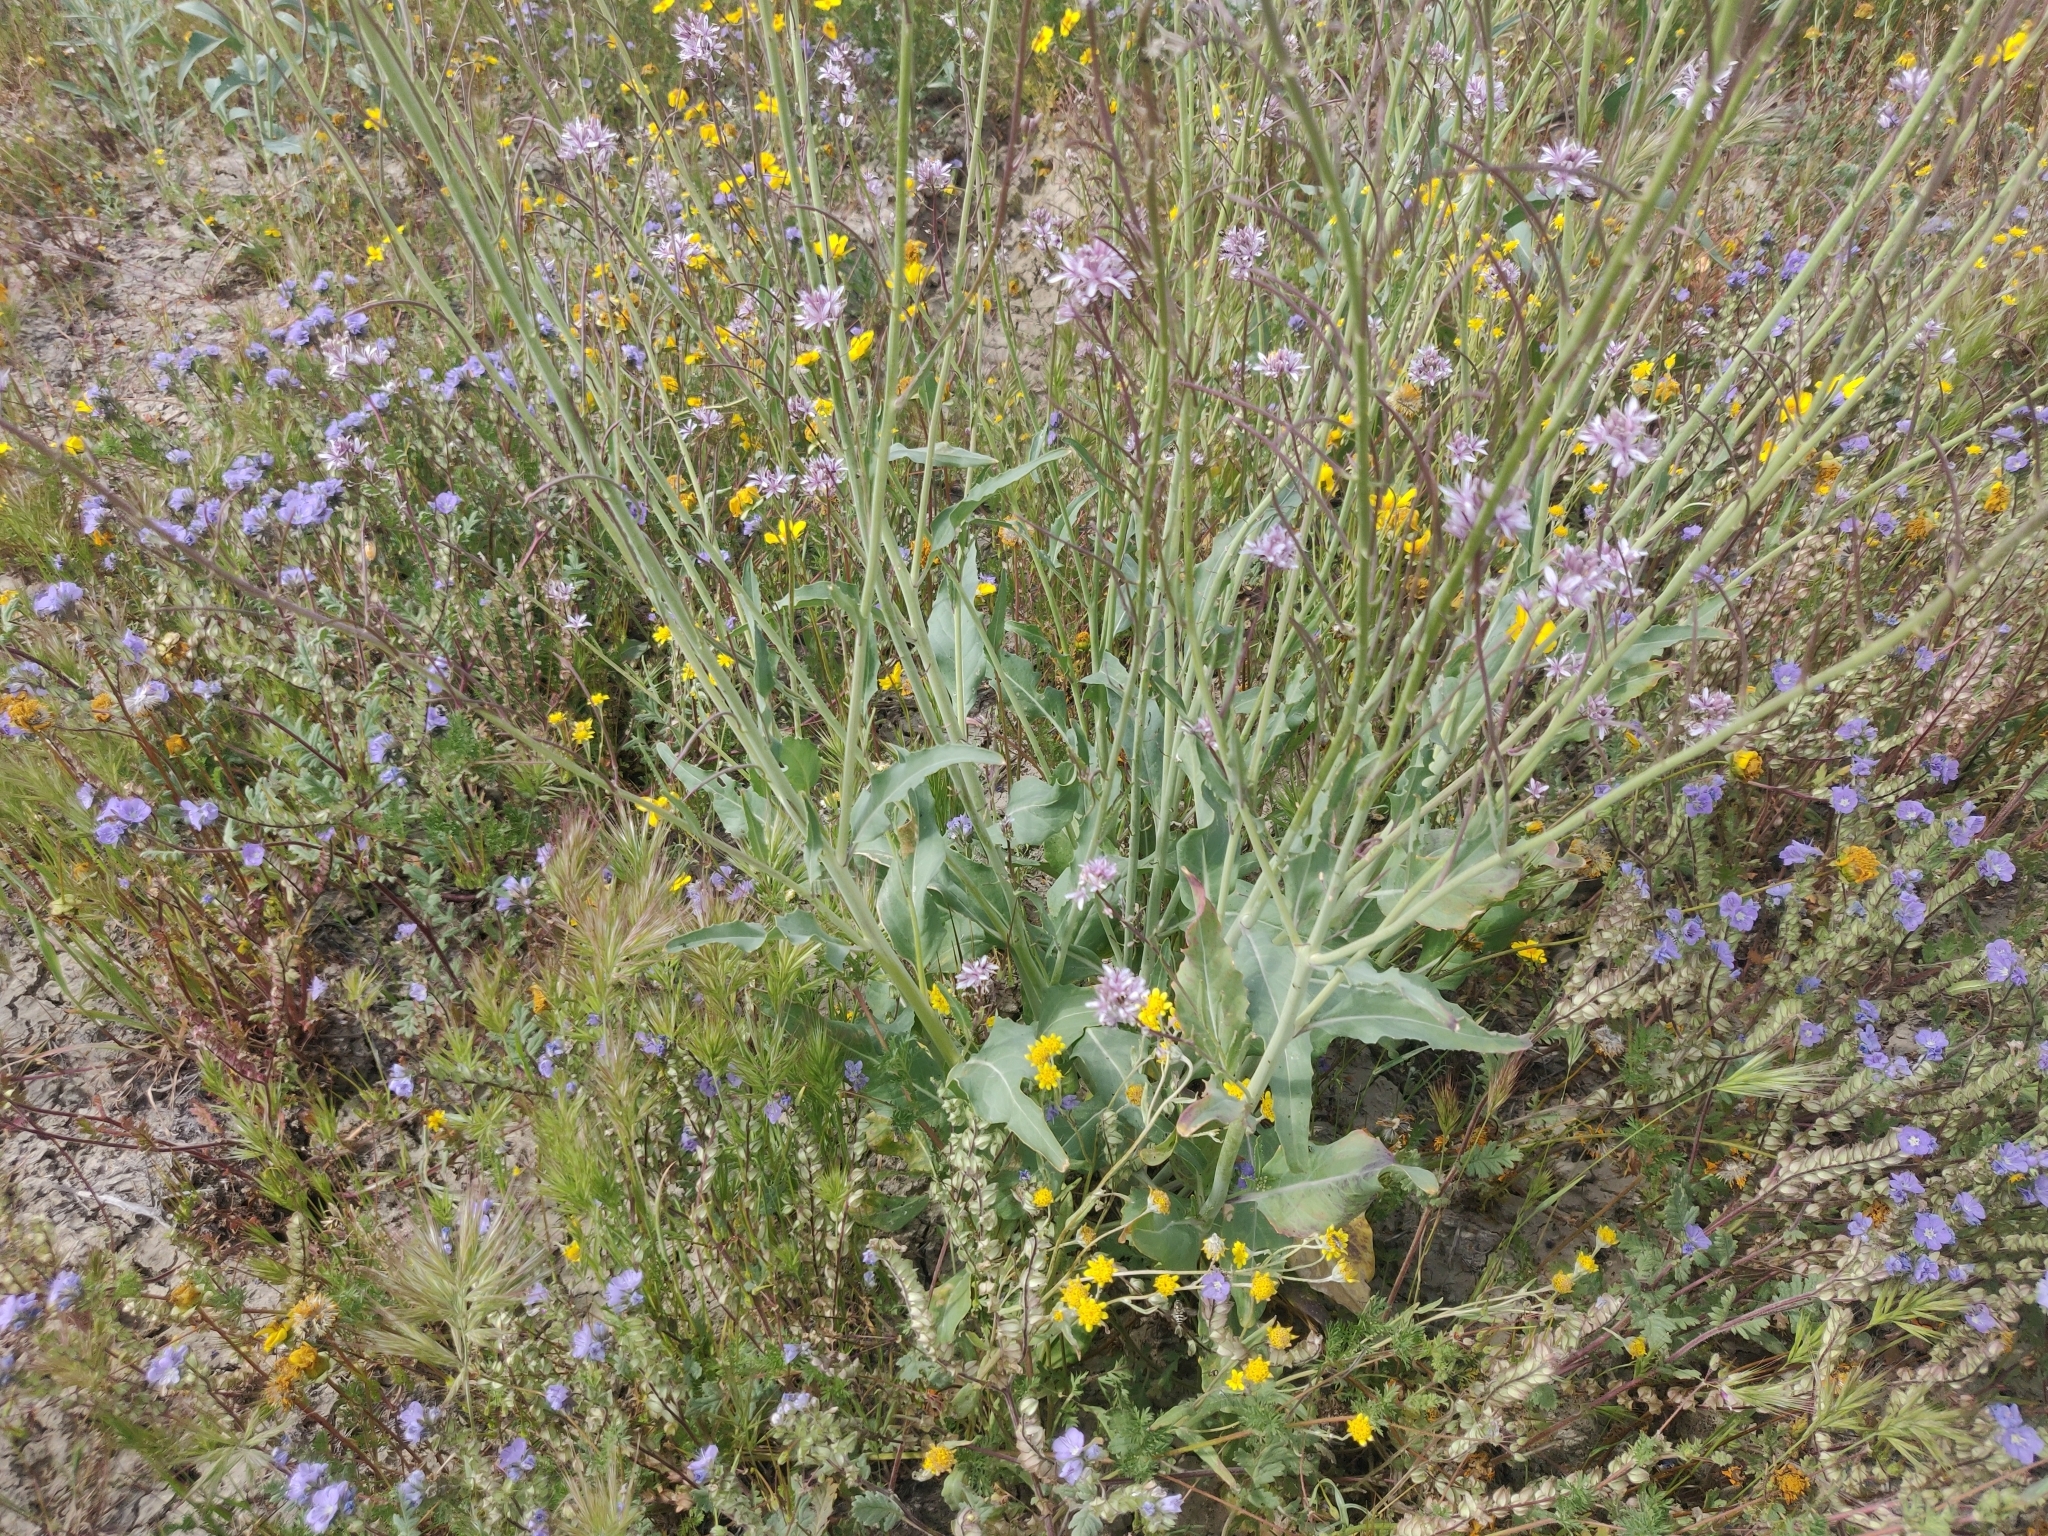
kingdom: Plantae
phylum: Tracheophyta
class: Magnoliopsida
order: Brassicales
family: Brassicaceae
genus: Streptanthus
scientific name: Streptanthus anceps
